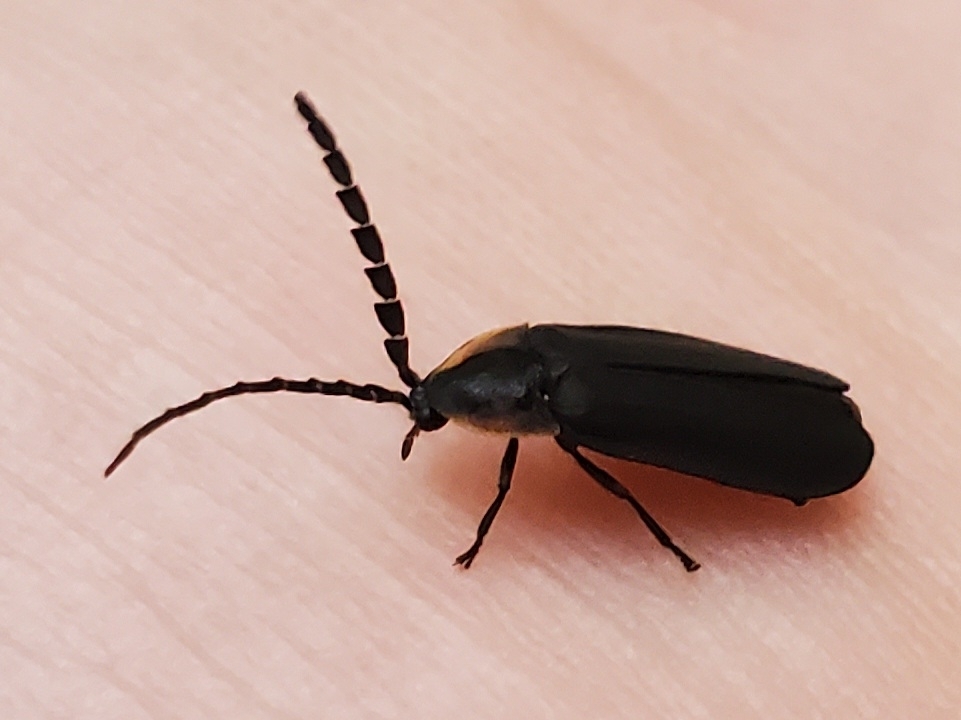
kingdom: Animalia
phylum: Arthropoda
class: Insecta
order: Coleoptera
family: Lampyridae
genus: Lucidota
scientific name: Lucidota atra
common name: Black firefly
